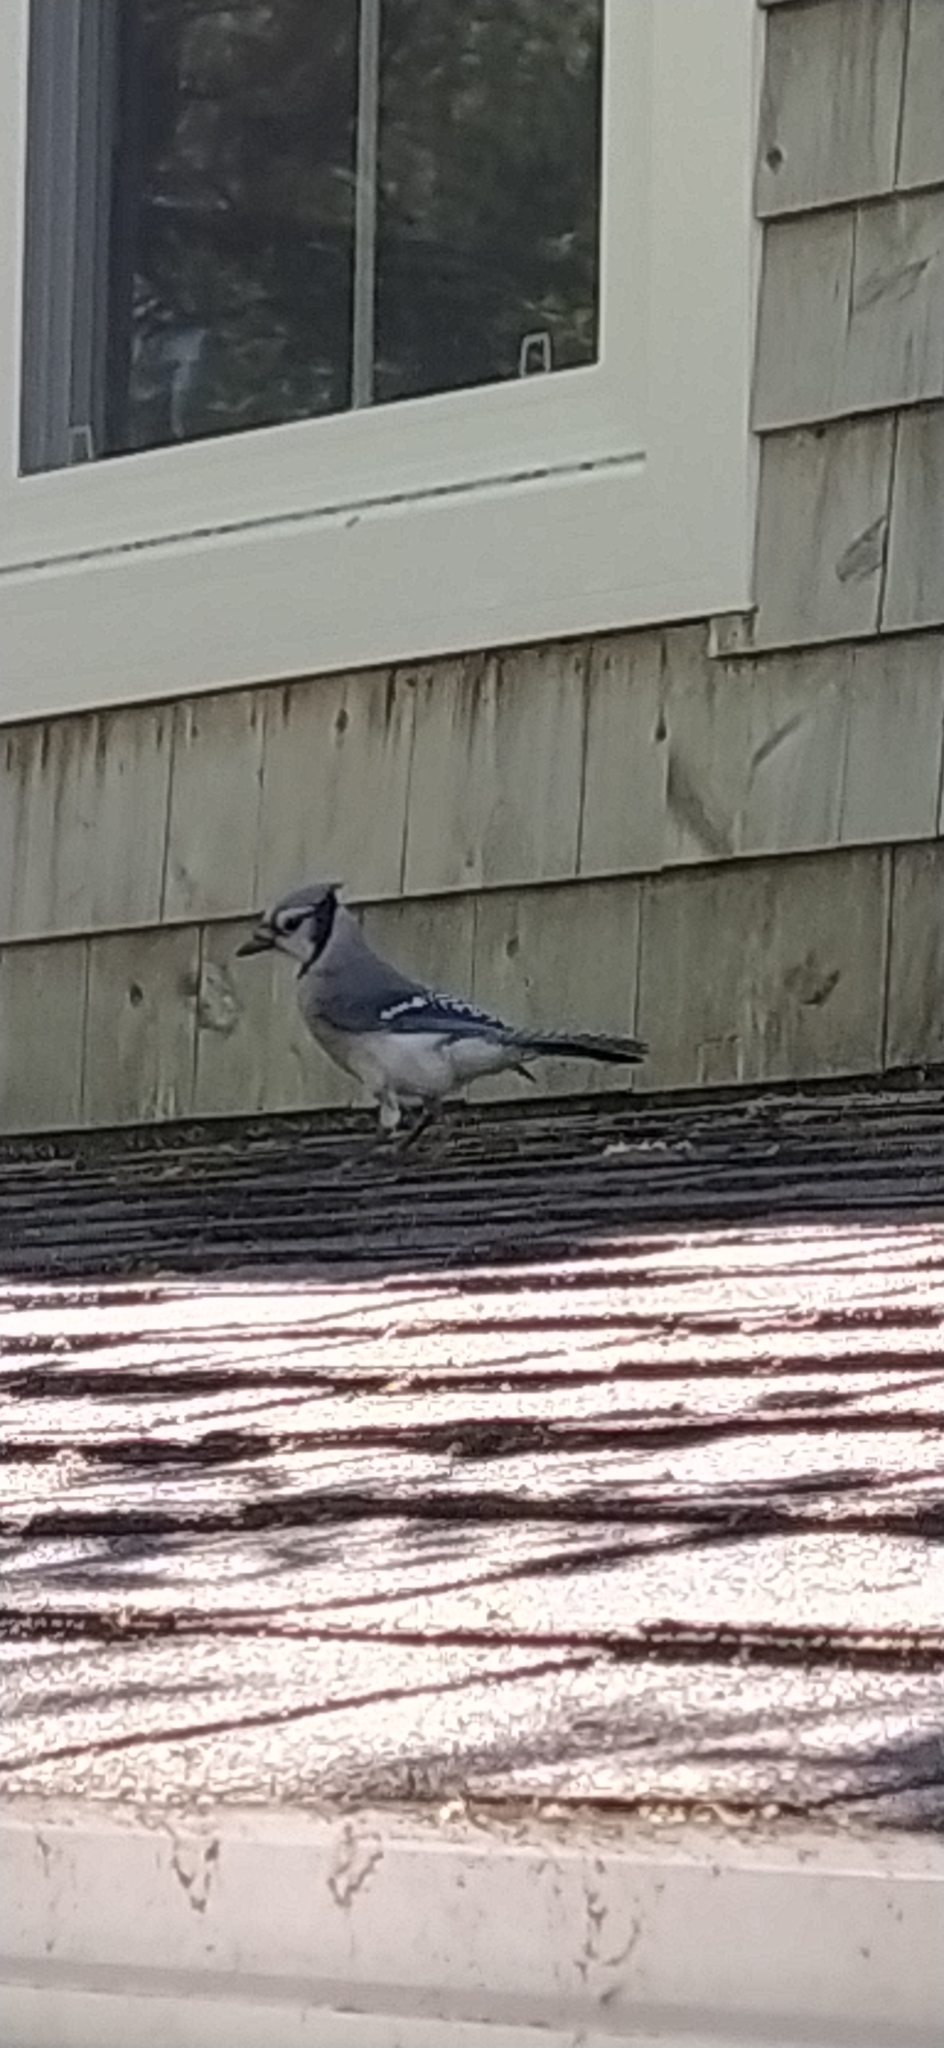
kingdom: Animalia
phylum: Chordata
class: Aves
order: Passeriformes
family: Corvidae
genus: Cyanocitta
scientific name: Cyanocitta cristata
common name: Blue jay
